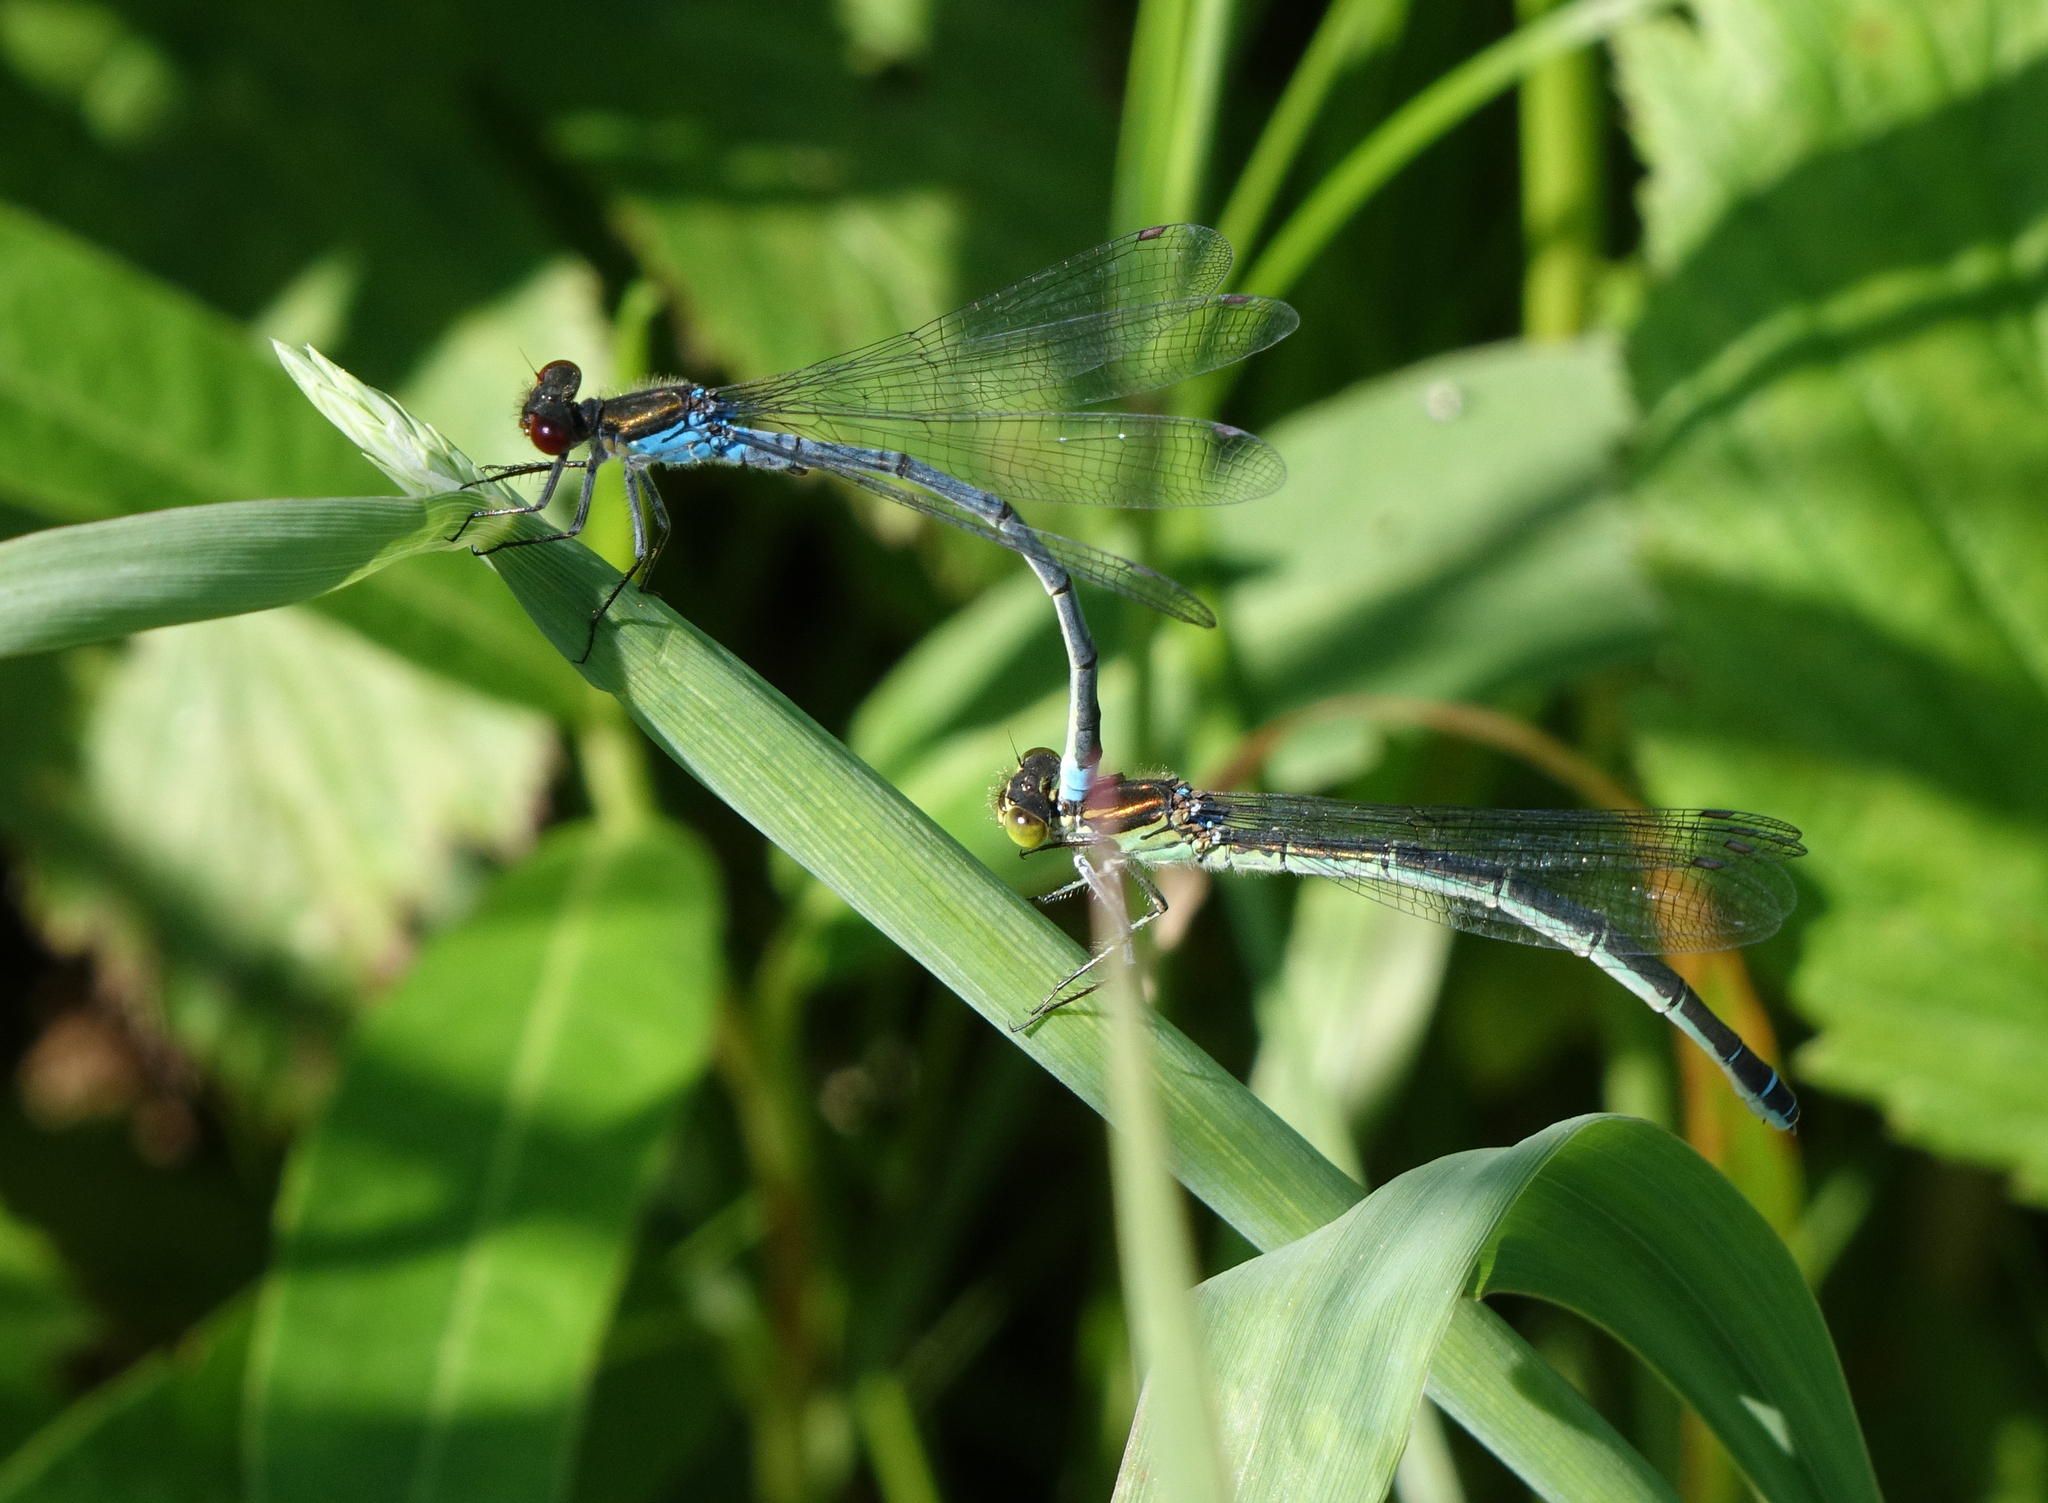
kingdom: Animalia
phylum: Arthropoda
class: Insecta
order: Odonata
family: Coenagrionidae
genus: Erythromma
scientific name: Erythromma najas
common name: Red-eyed damselfly
